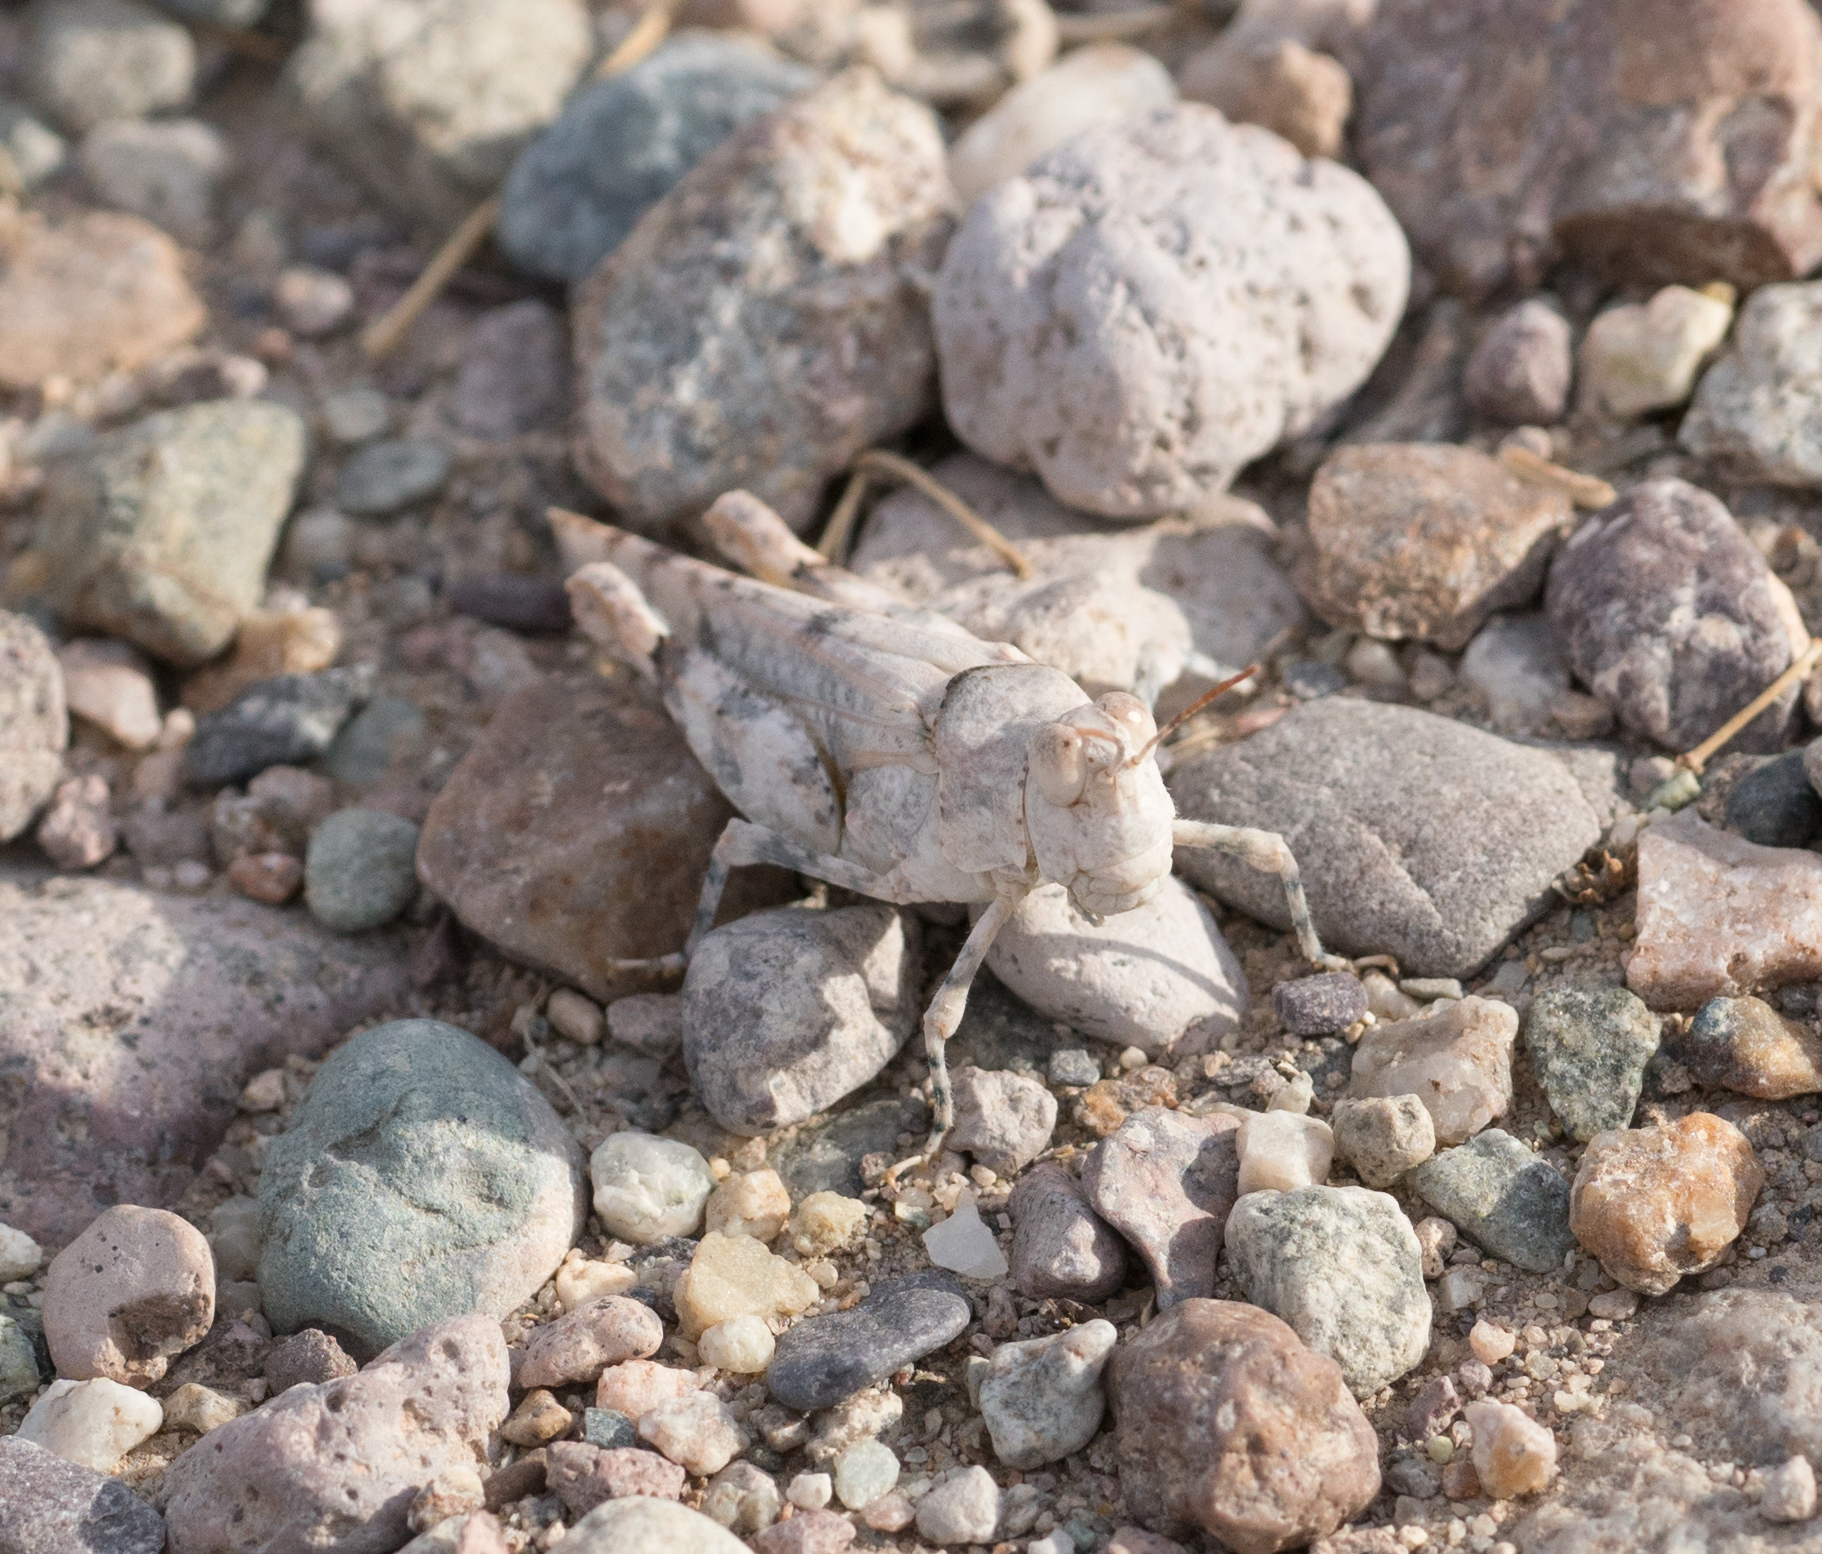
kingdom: Animalia
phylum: Arthropoda
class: Insecta
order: Orthoptera
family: Acrididae
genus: Cibolacris
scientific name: Cibolacris parviceps
